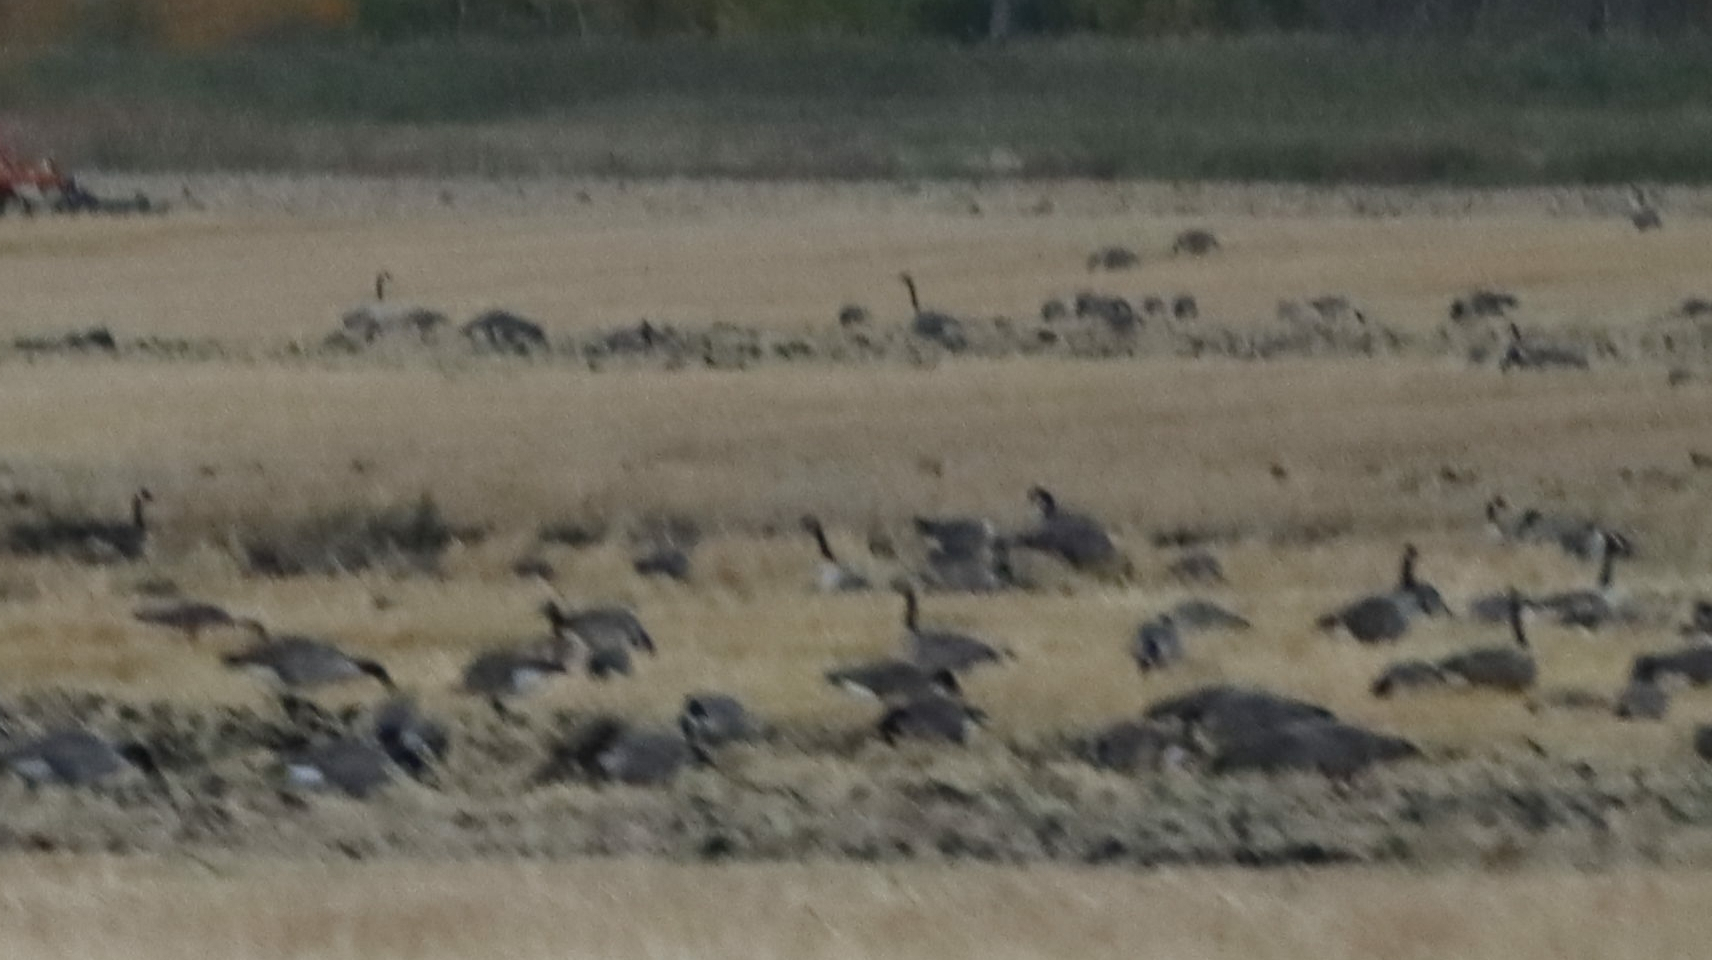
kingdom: Animalia
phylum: Chordata
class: Aves
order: Anseriformes
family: Anatidae
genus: Branta
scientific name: Branta canadensis
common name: Canada goose
